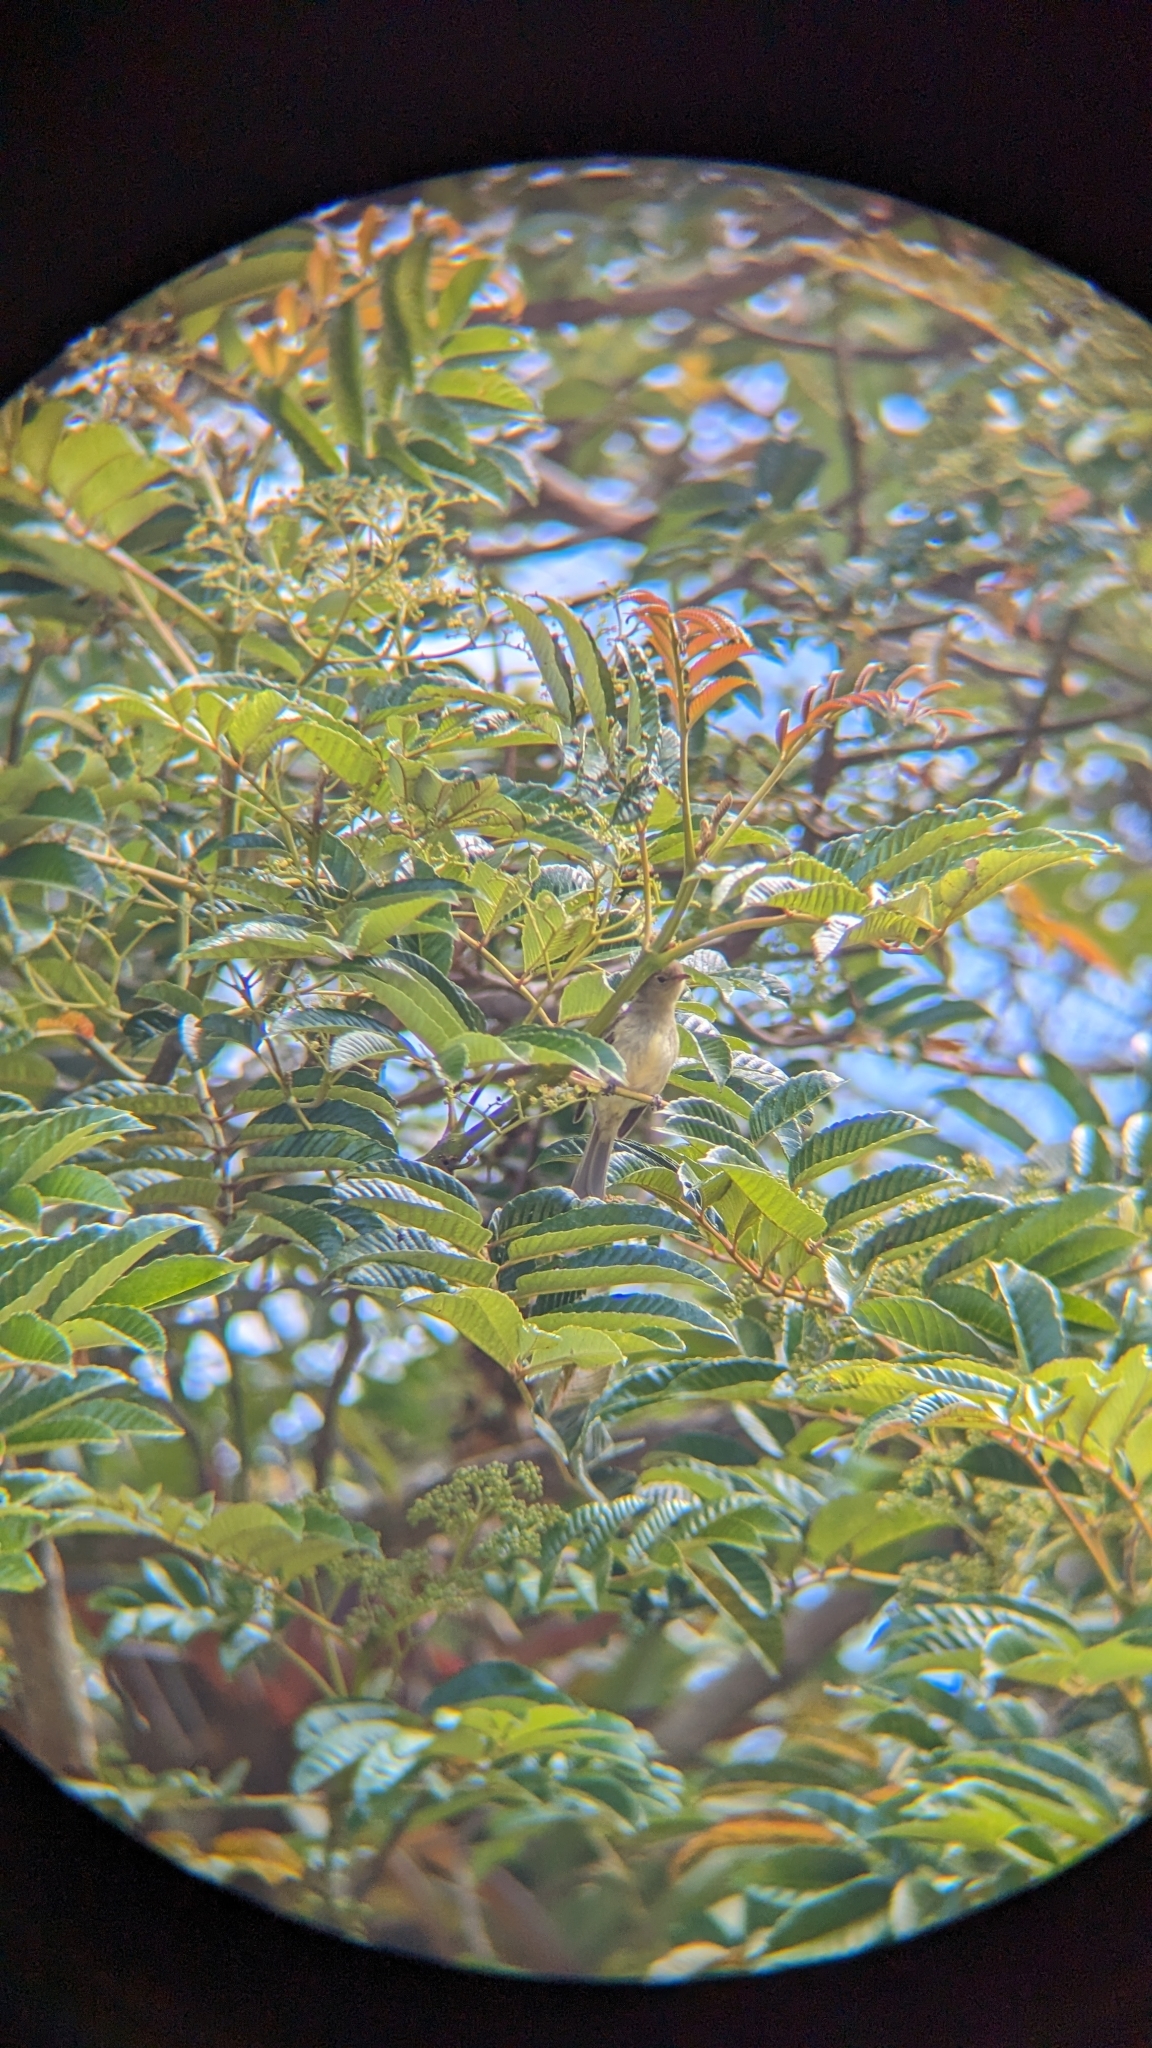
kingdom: Animalia
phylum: Chordata
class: Aves
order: Passeriformes
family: Tyrannidae
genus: Elaenia
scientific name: Elaenia frantzii
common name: Mountain elaenia
